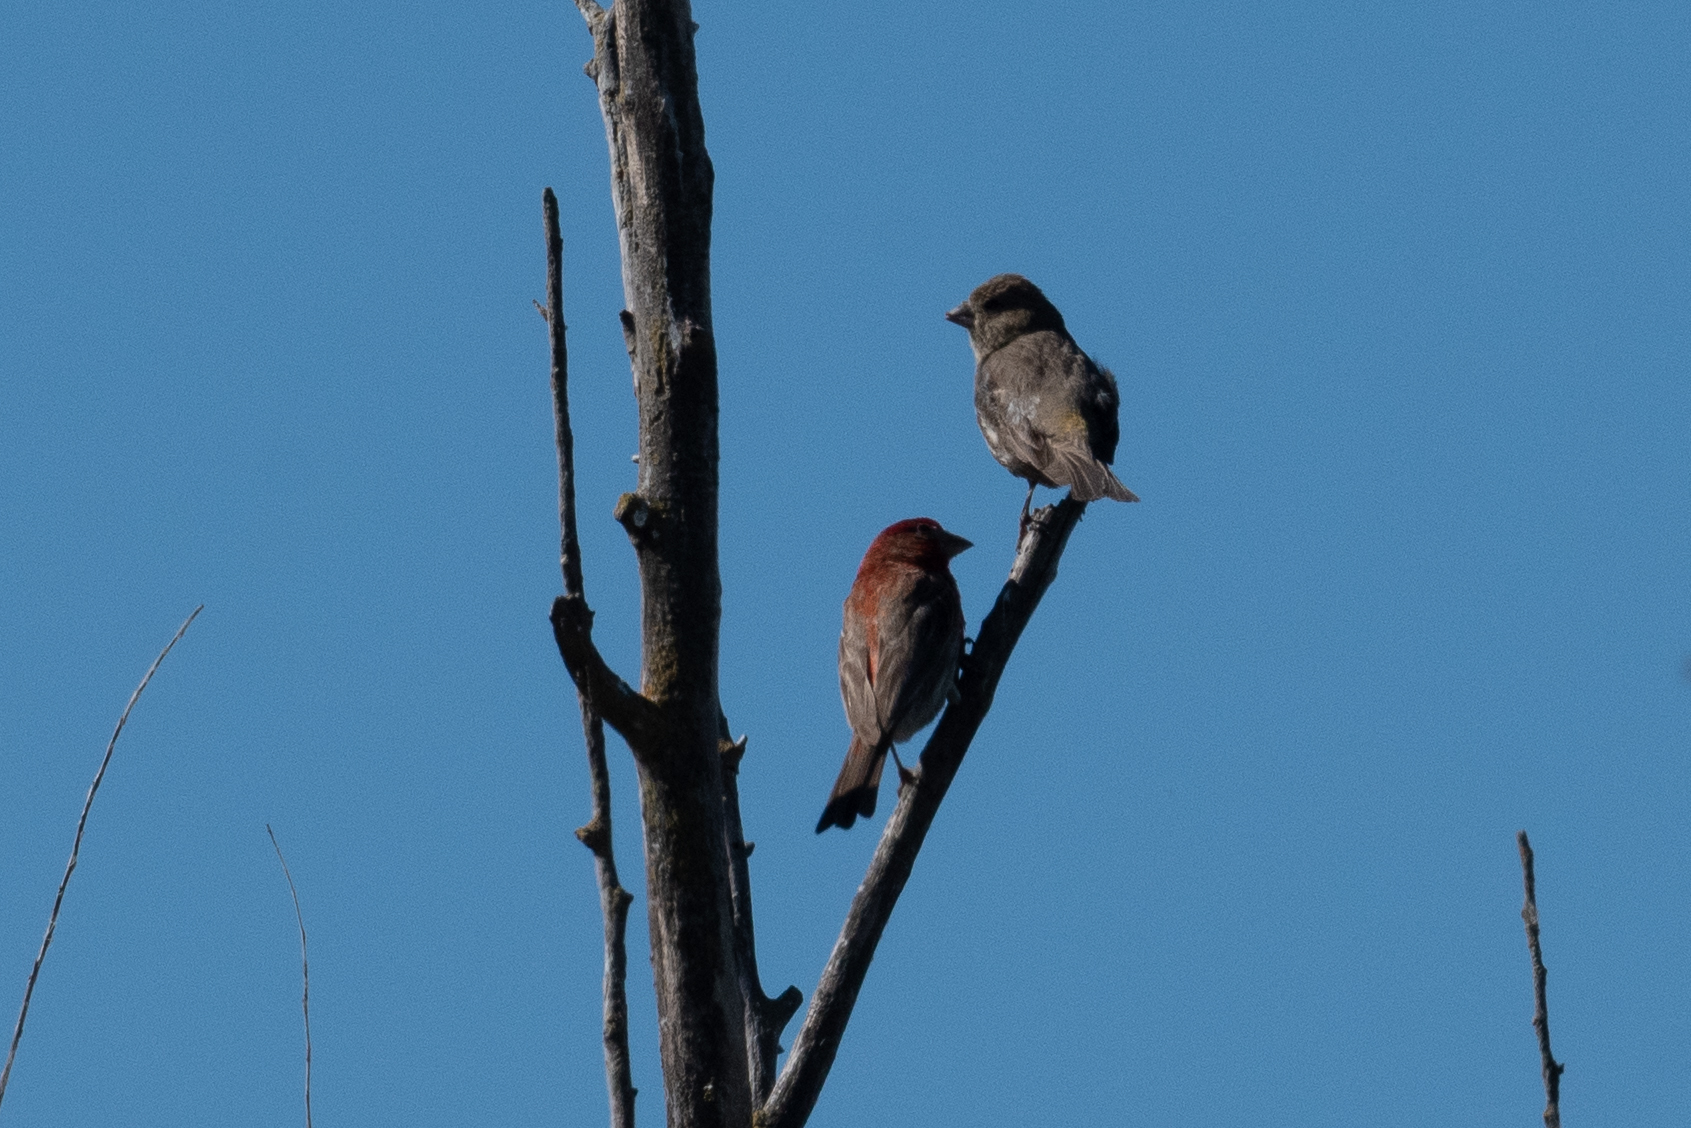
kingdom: Animalia
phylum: Chordata
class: Aves
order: Passeriformes
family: Fringillidae
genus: Haemorhous
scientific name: Haemorhous mexicanus
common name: House finch
